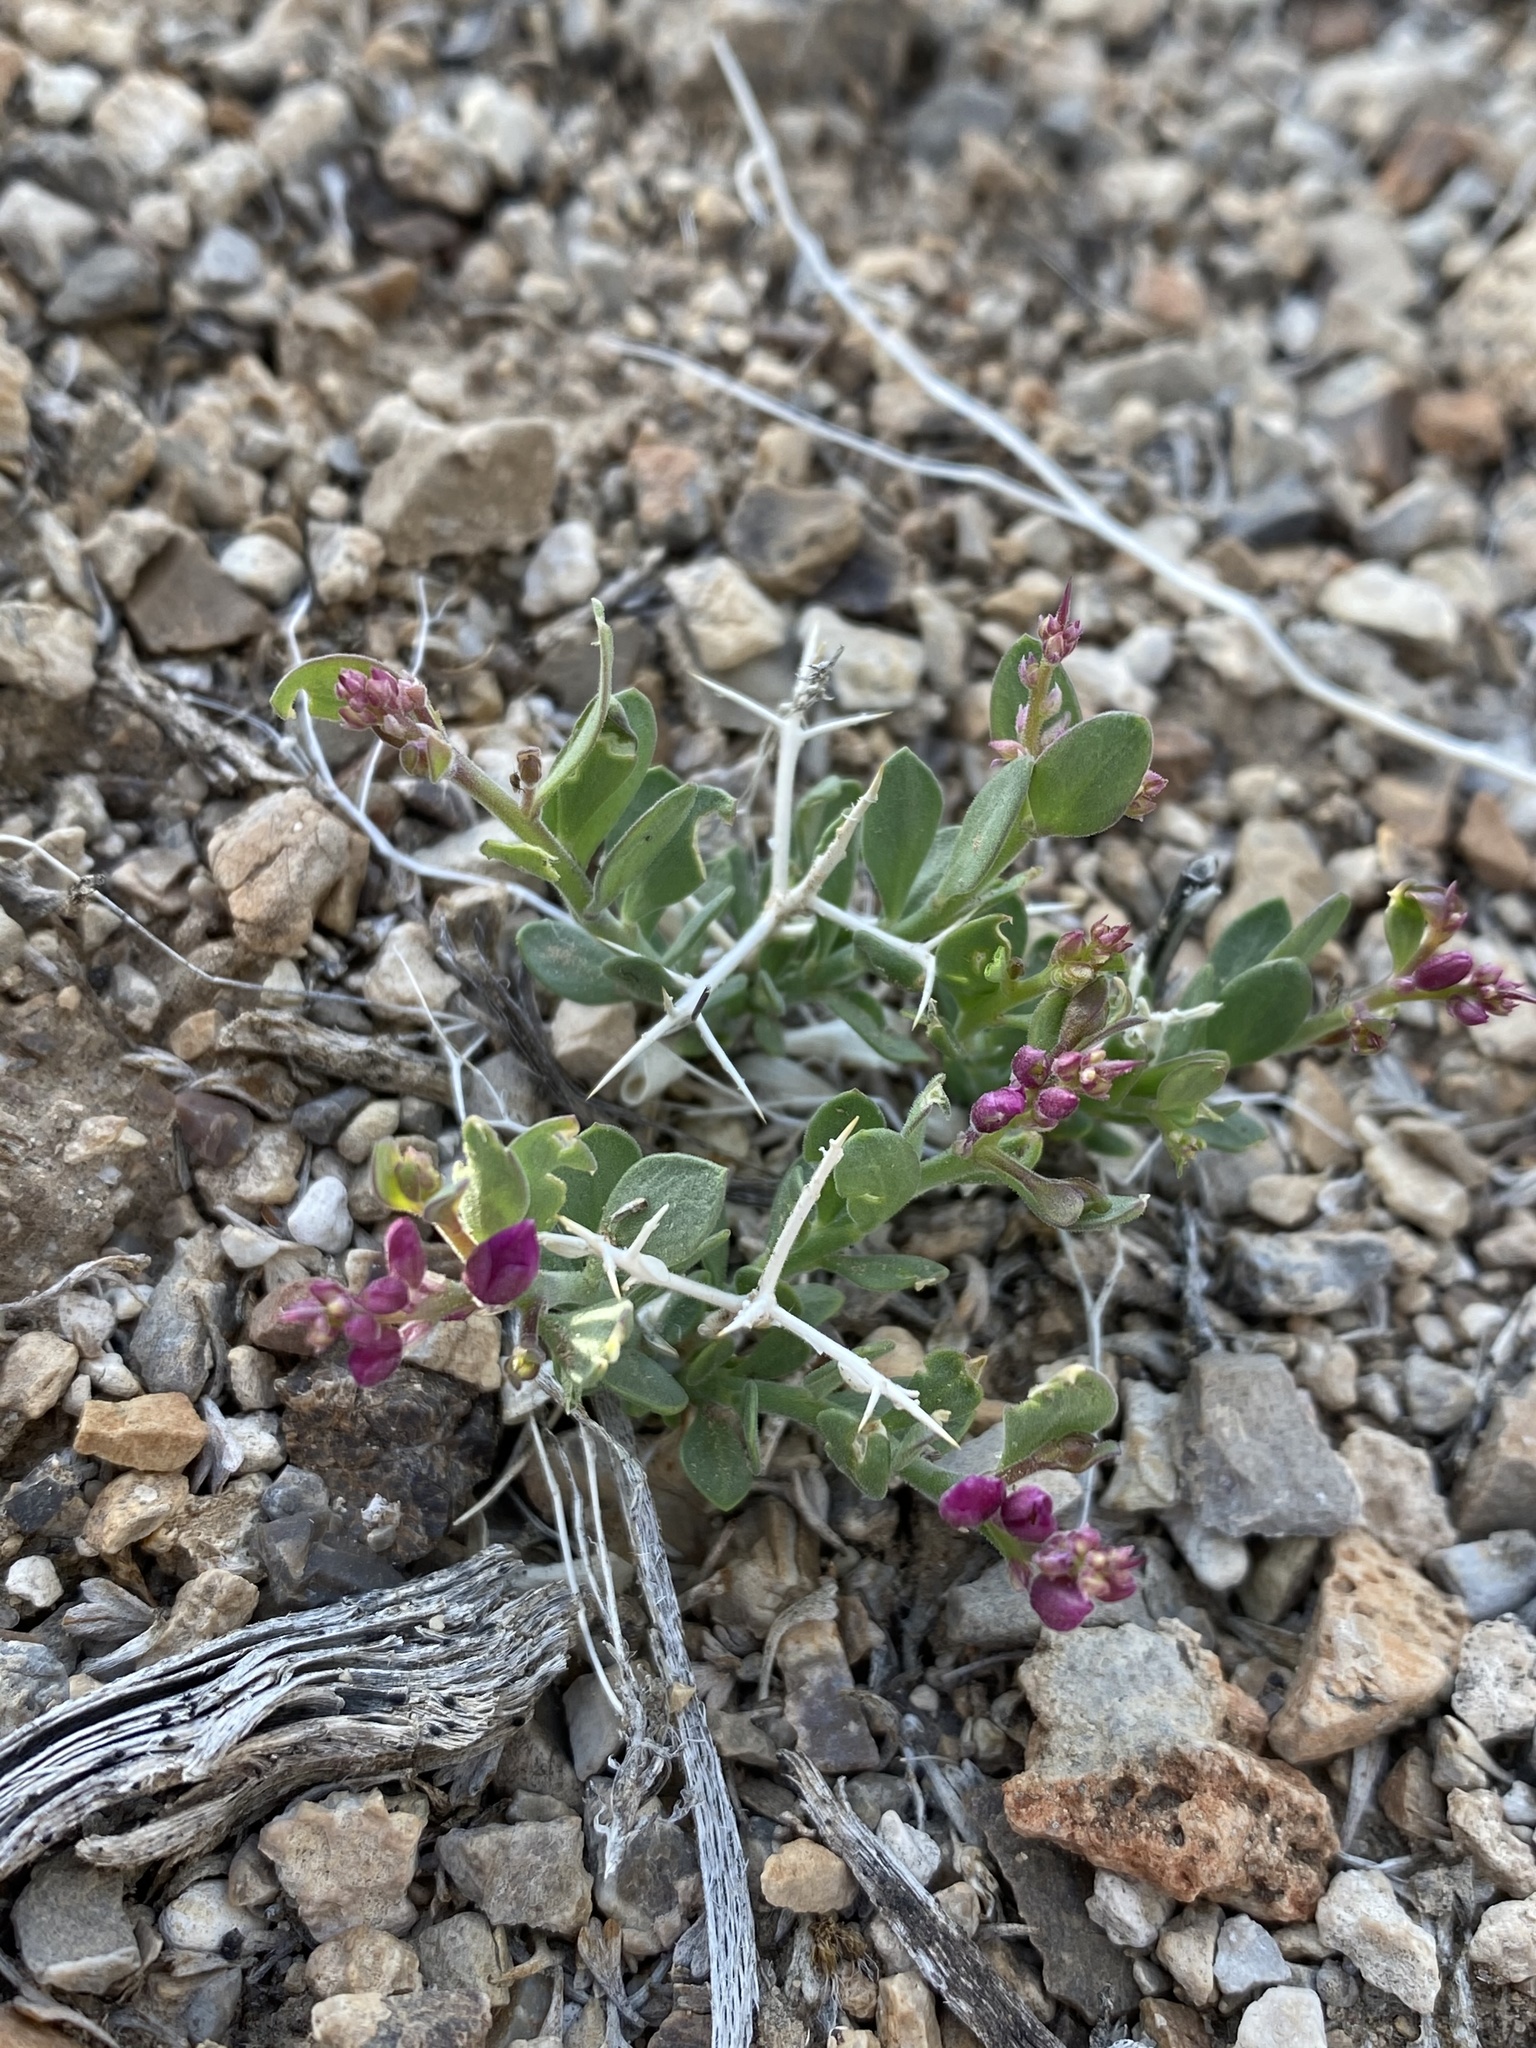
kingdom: Plantae
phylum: Tracheophyta
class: Magnoliopsida
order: Fabales
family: Polygalaceae
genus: Rhinotropis
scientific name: Rhinotropis subspinosa
